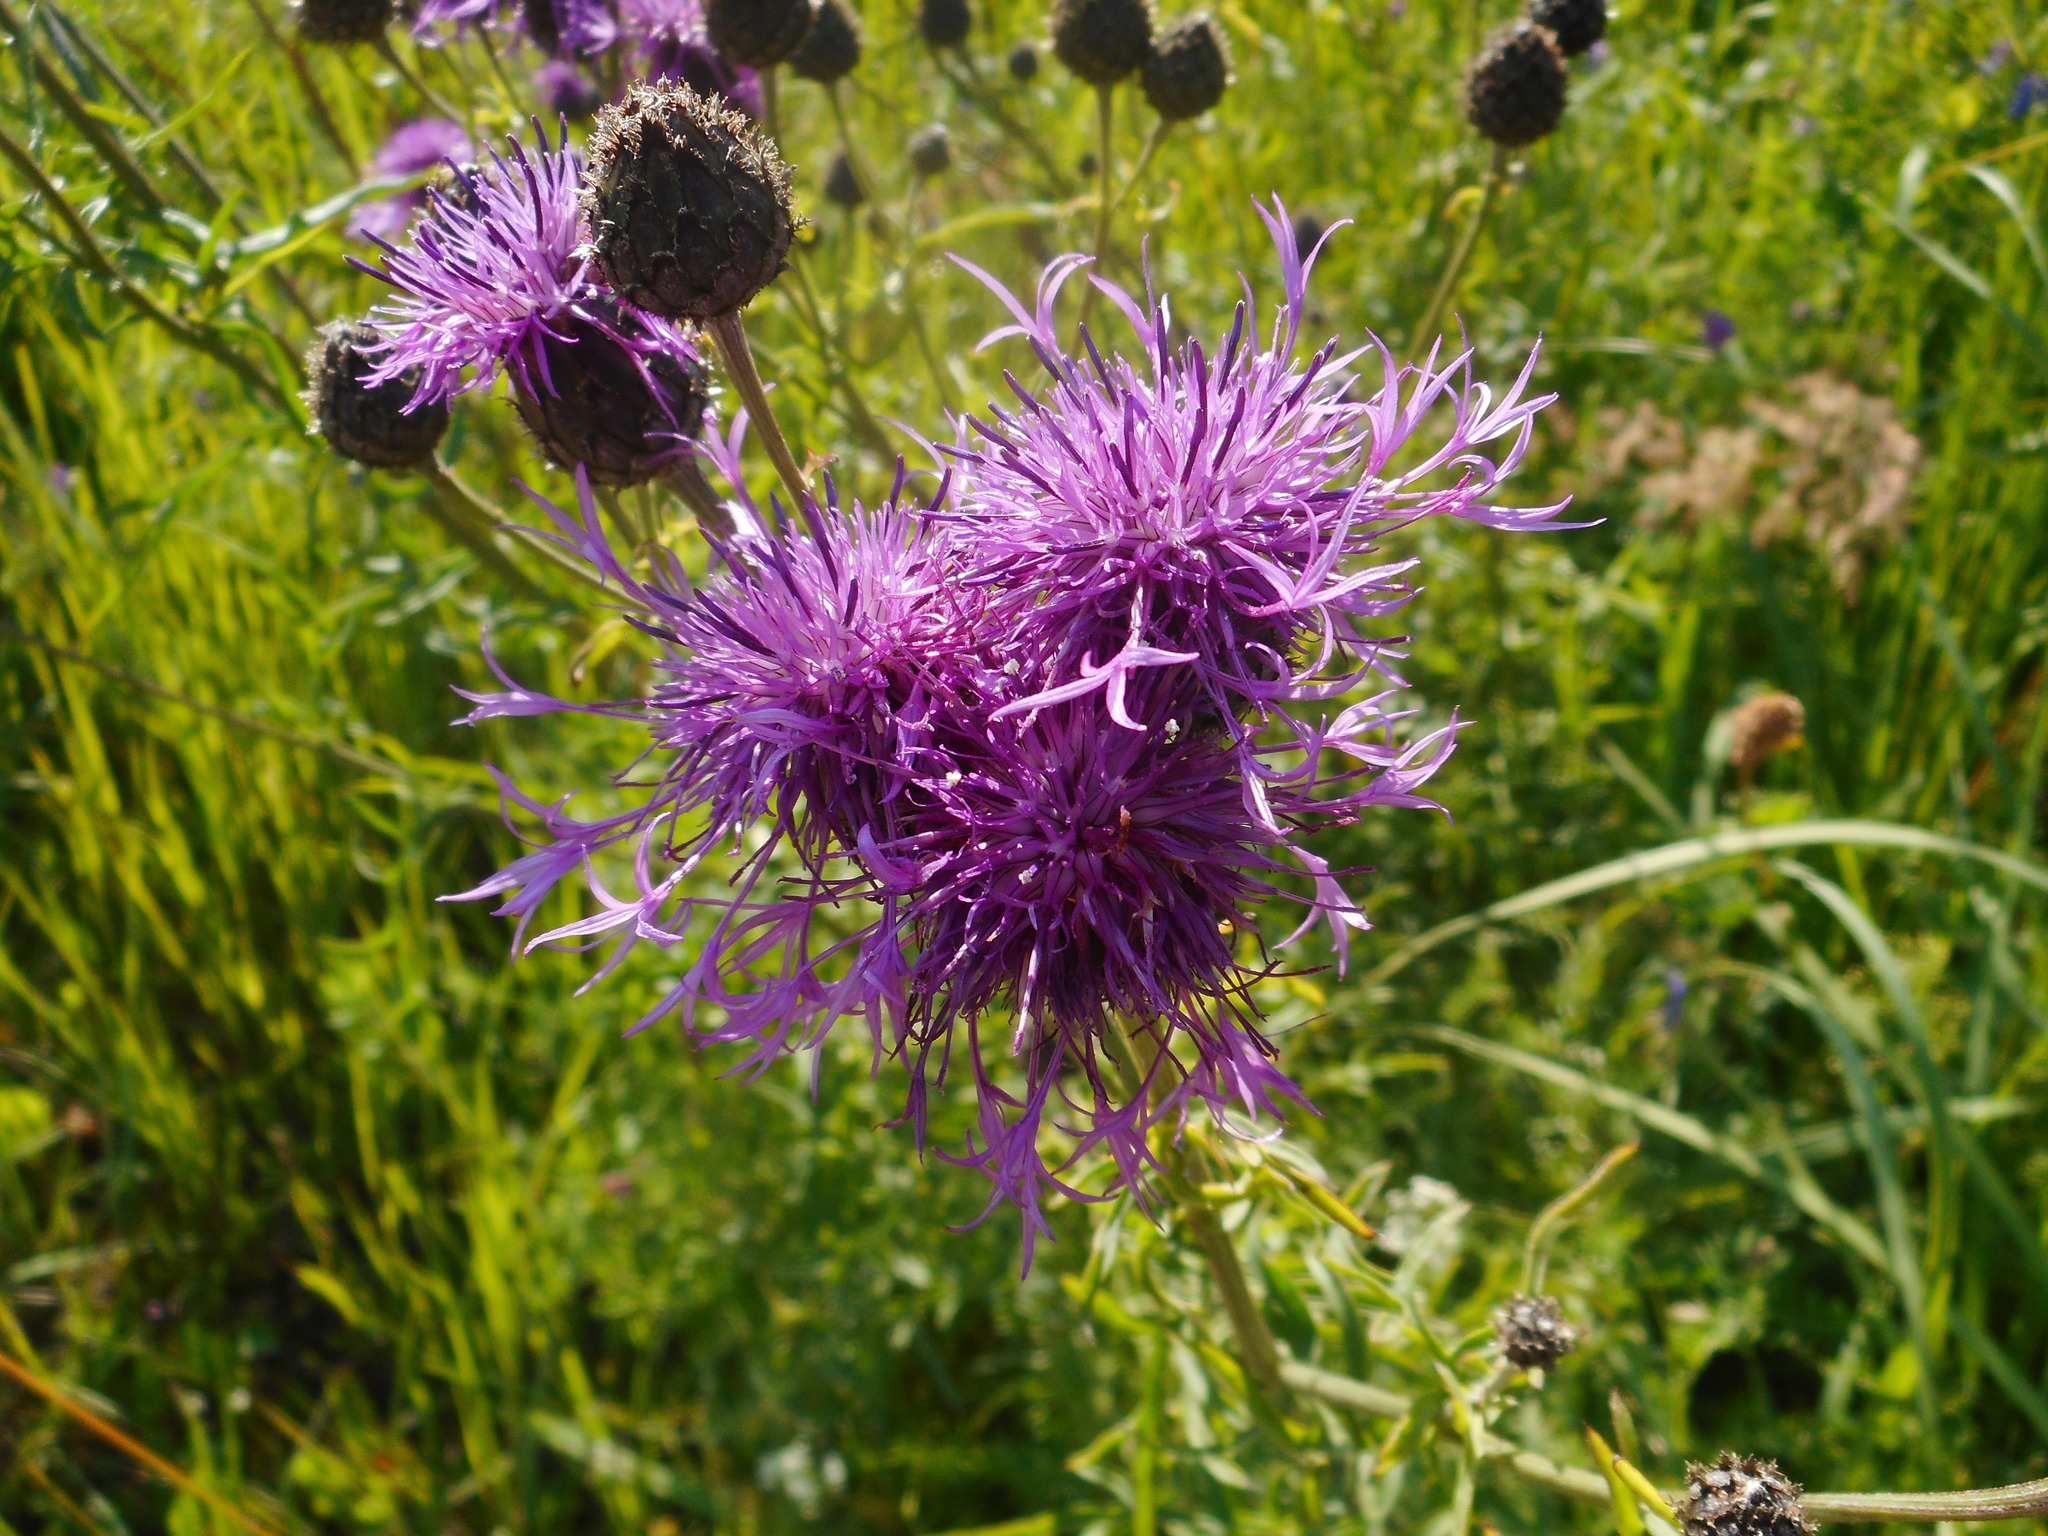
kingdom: Plantae
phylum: Tracheophyta
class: Magnoliopsida
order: Asterales
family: Asteraceae
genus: Centaurea
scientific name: Centaurea scabiosa
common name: Greater knapweed
